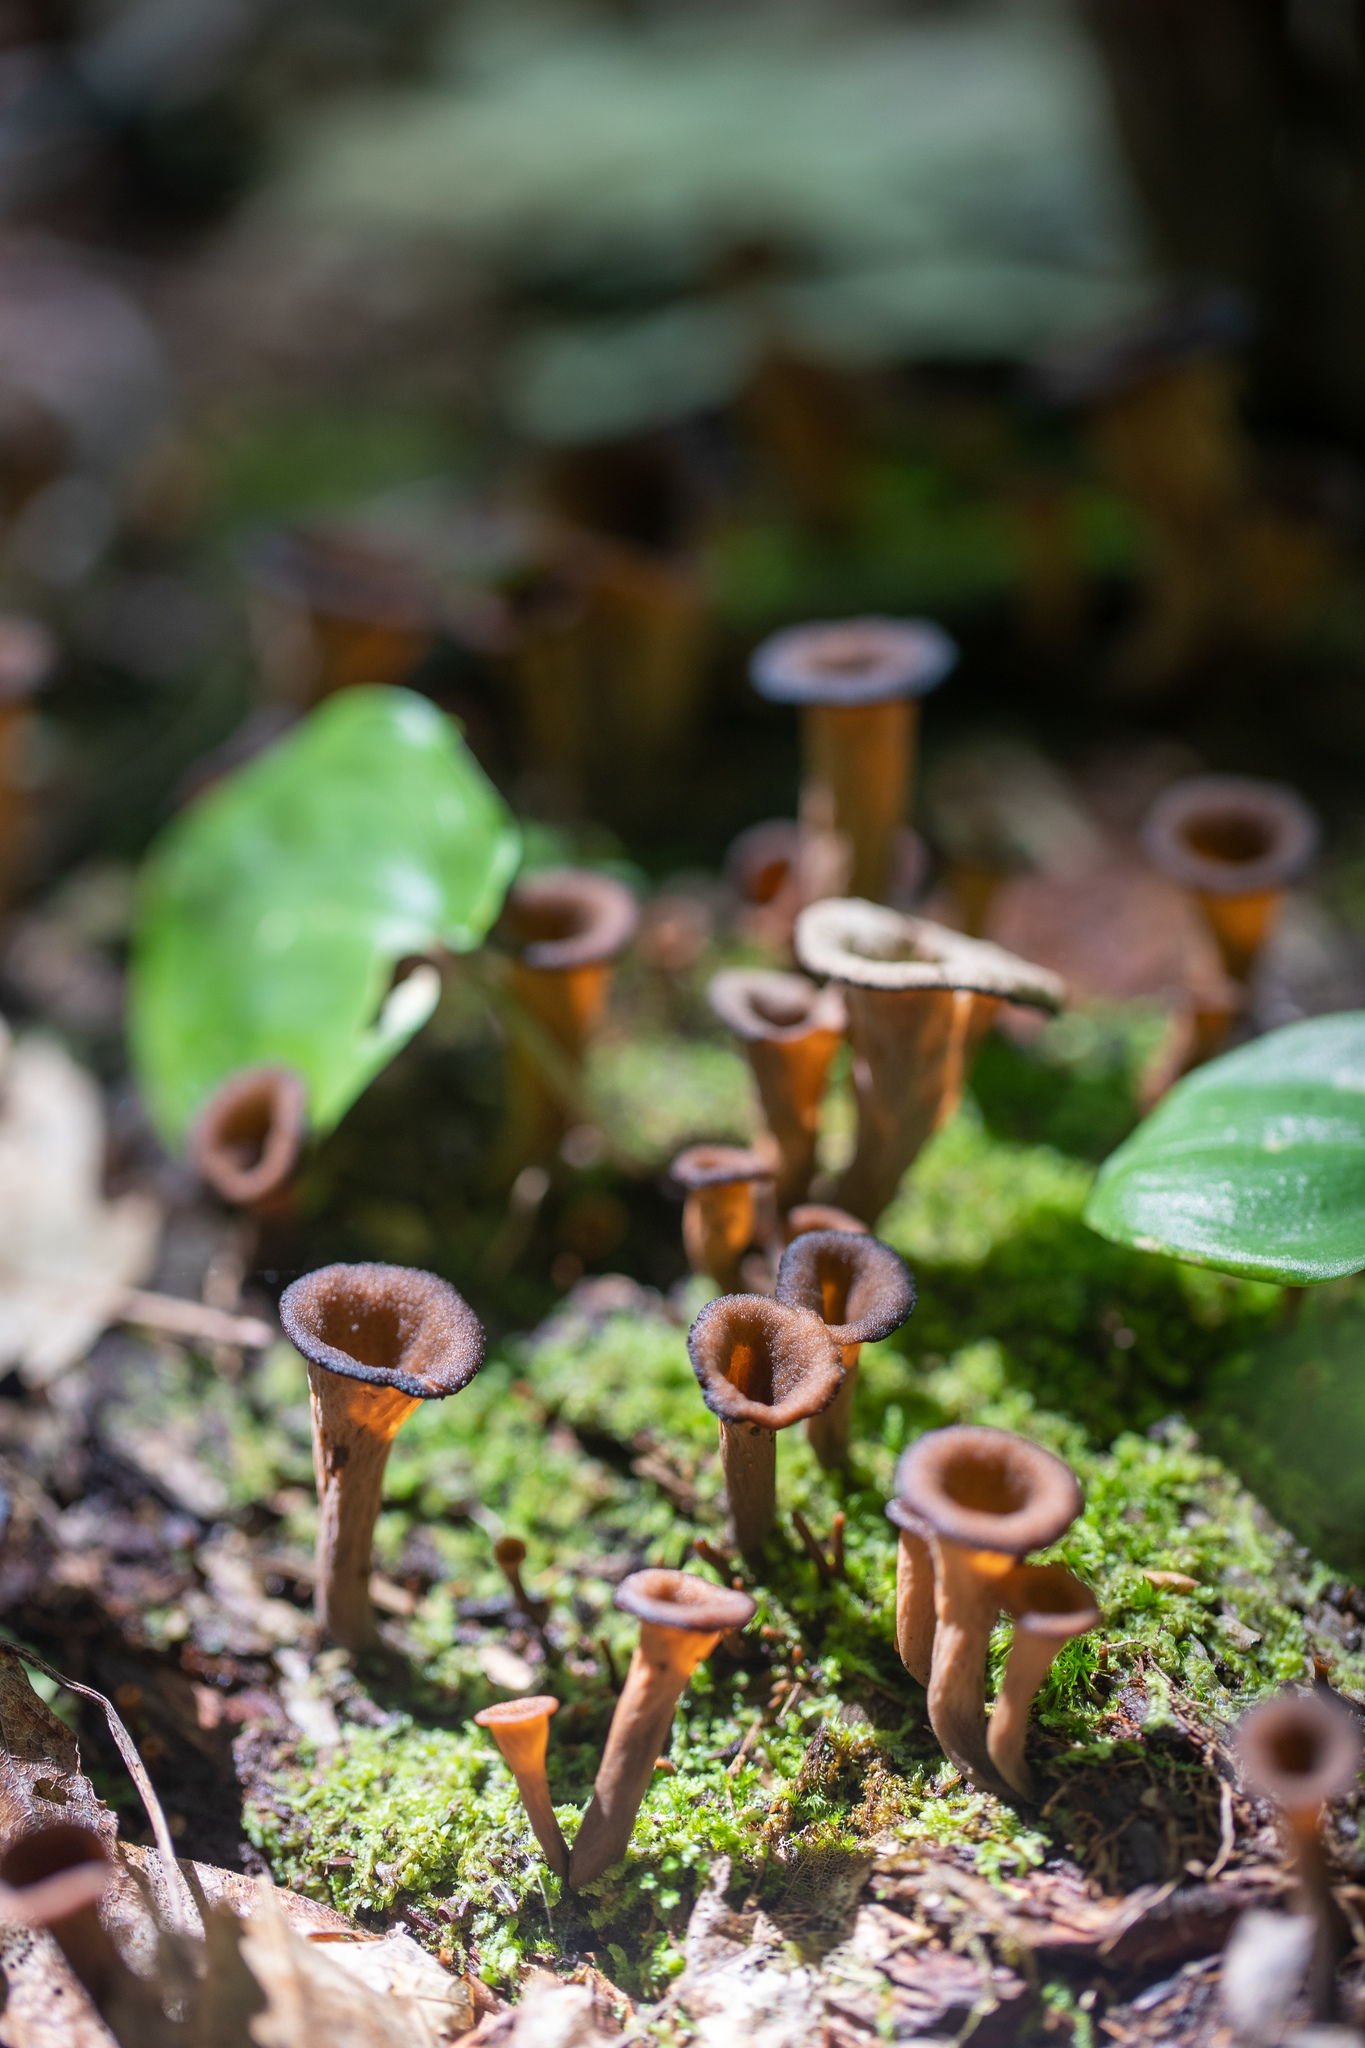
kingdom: Fungi
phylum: Basidiomycota
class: Agaricomycetes
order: Cantharellales
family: Hydnaceae
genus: Craterellus
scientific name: Craterellus cornucopioides
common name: Horn of plenty
